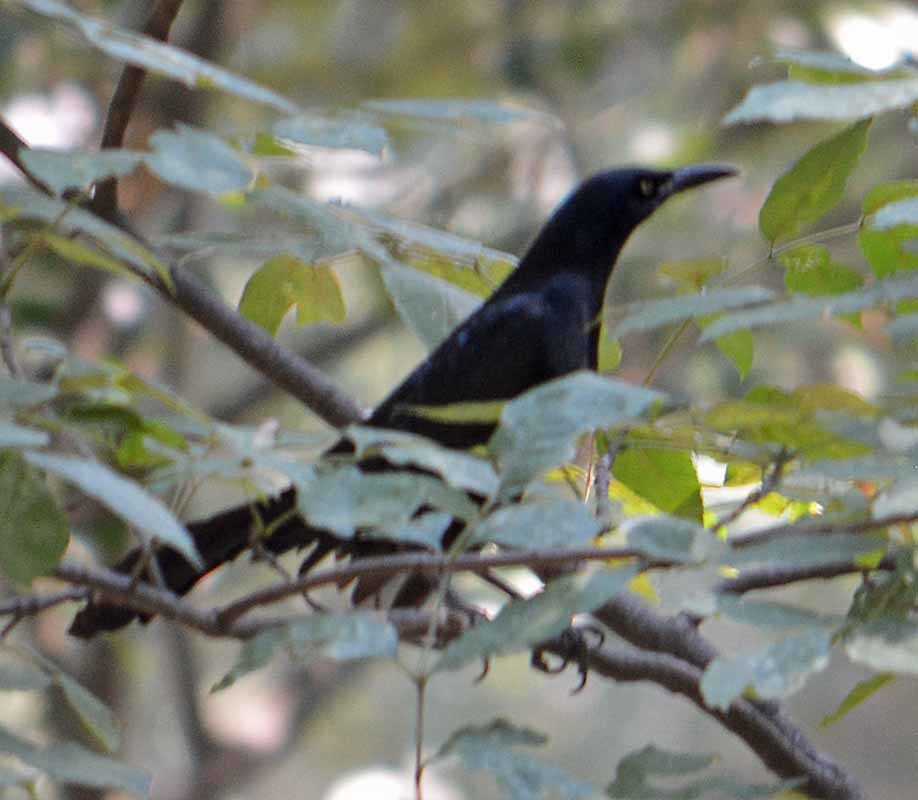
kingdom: Animalia
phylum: Chordata
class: Aves
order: Passeriformes
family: Icteridae
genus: Quiscalus
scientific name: Quiscalus mexicanus
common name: Great-tailed grackle
